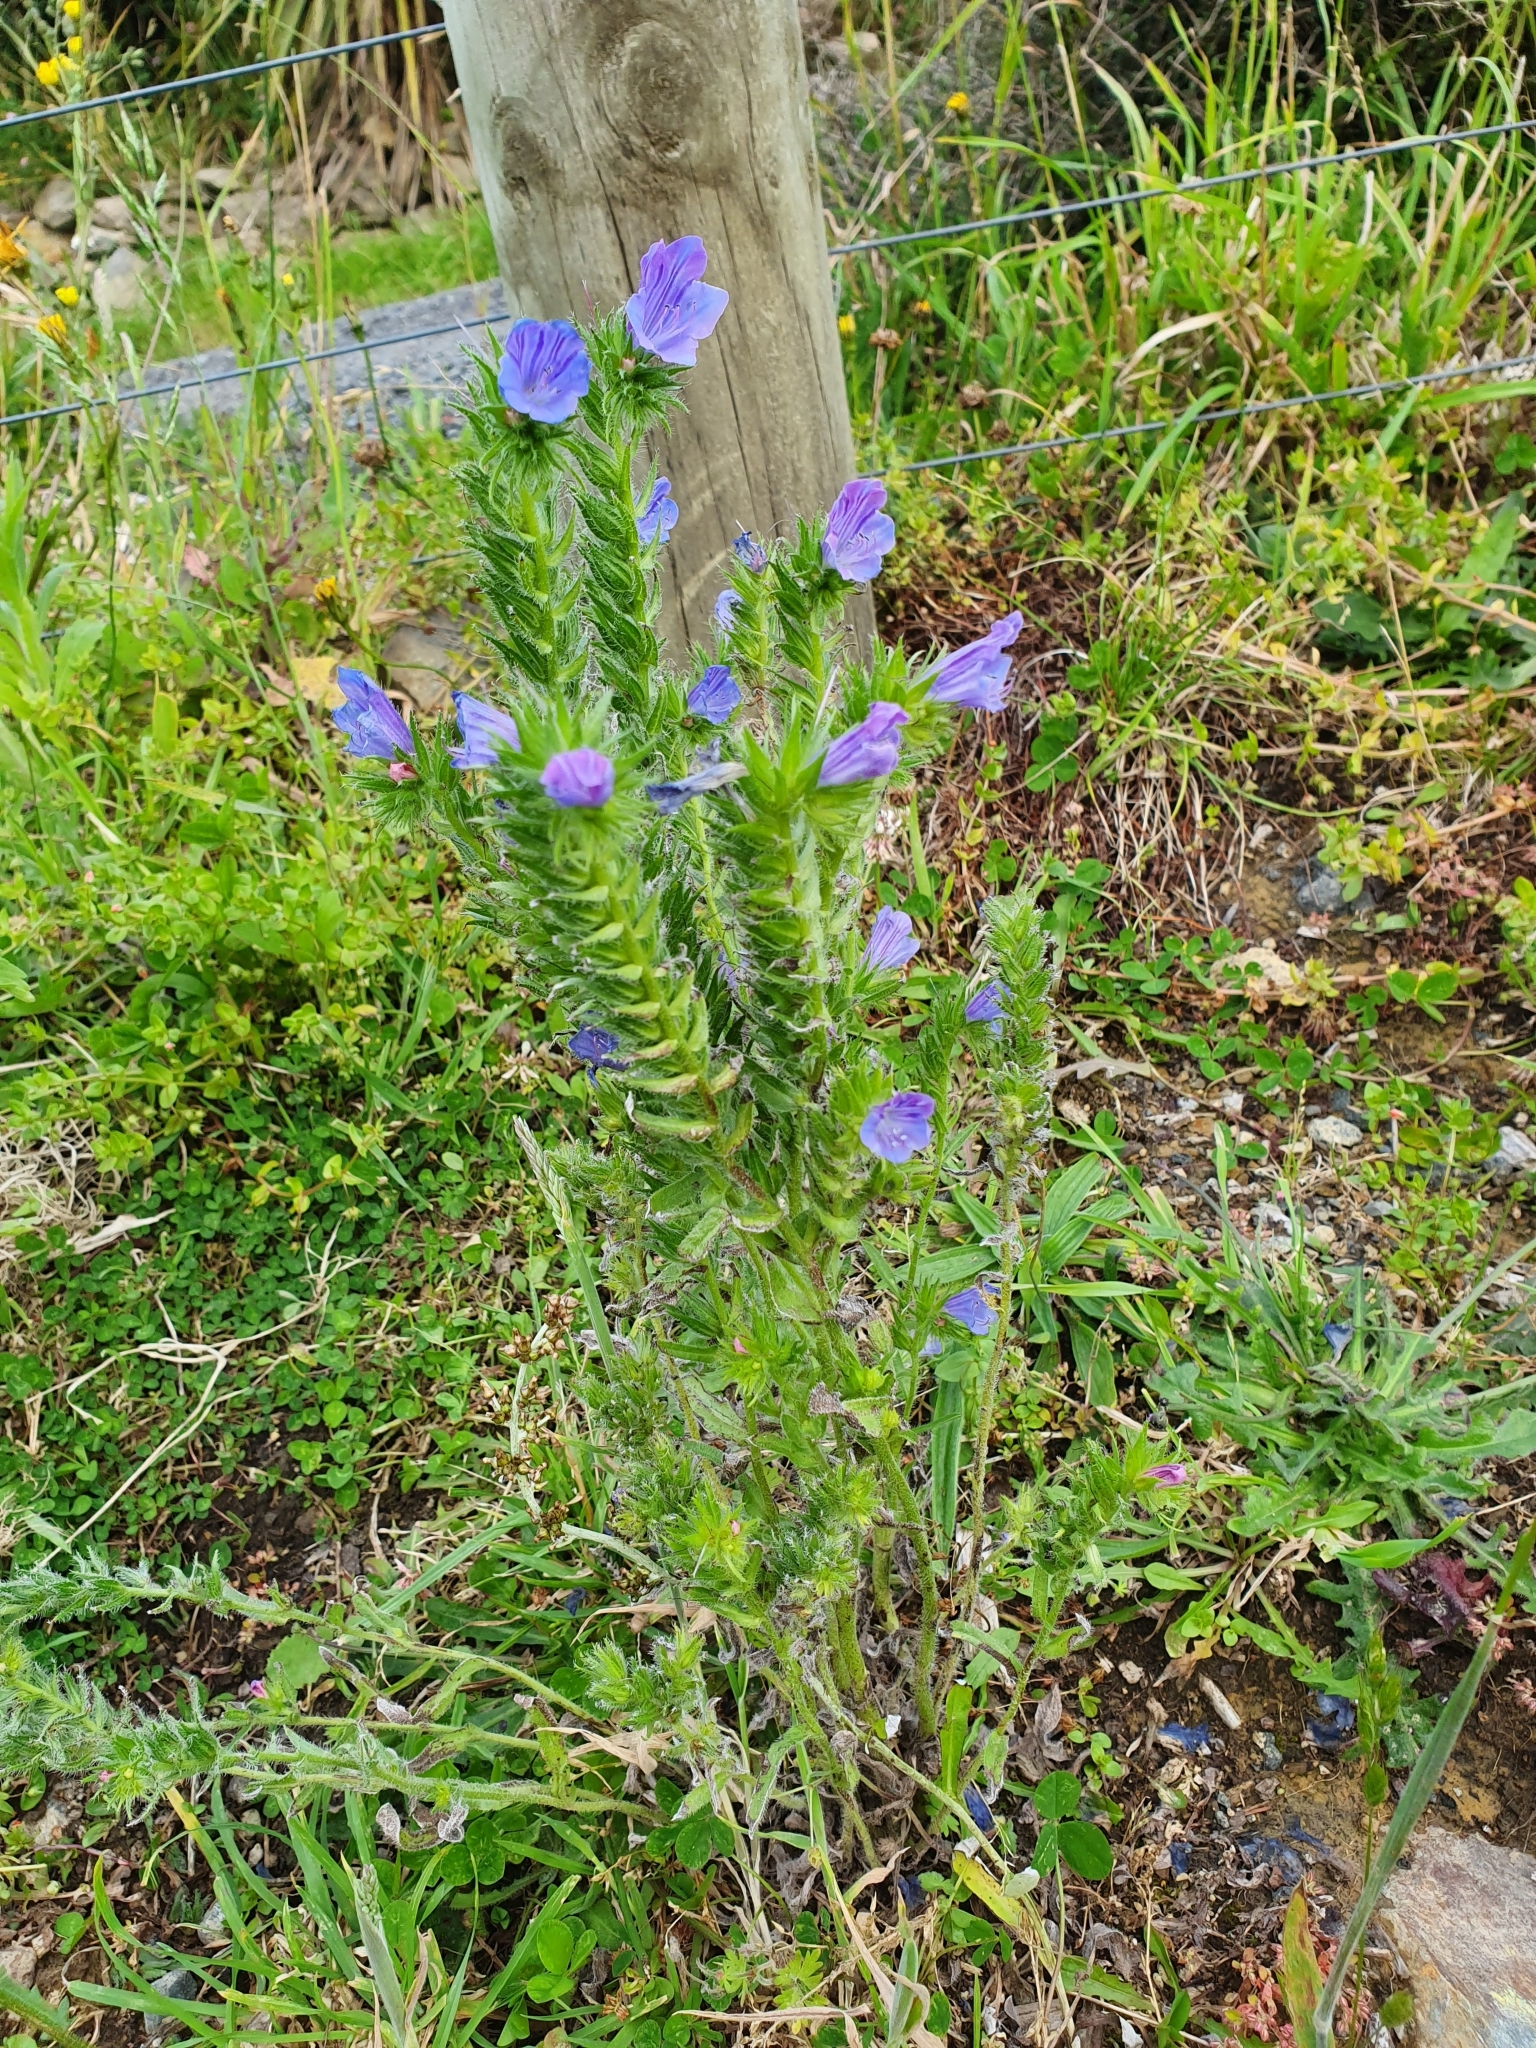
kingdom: Plantae
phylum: Tracheophyta
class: Magnoliopsida
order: Boraginales
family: Boraginaceae
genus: Echium
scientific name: Echium vulgare
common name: Common viper's bugloss
